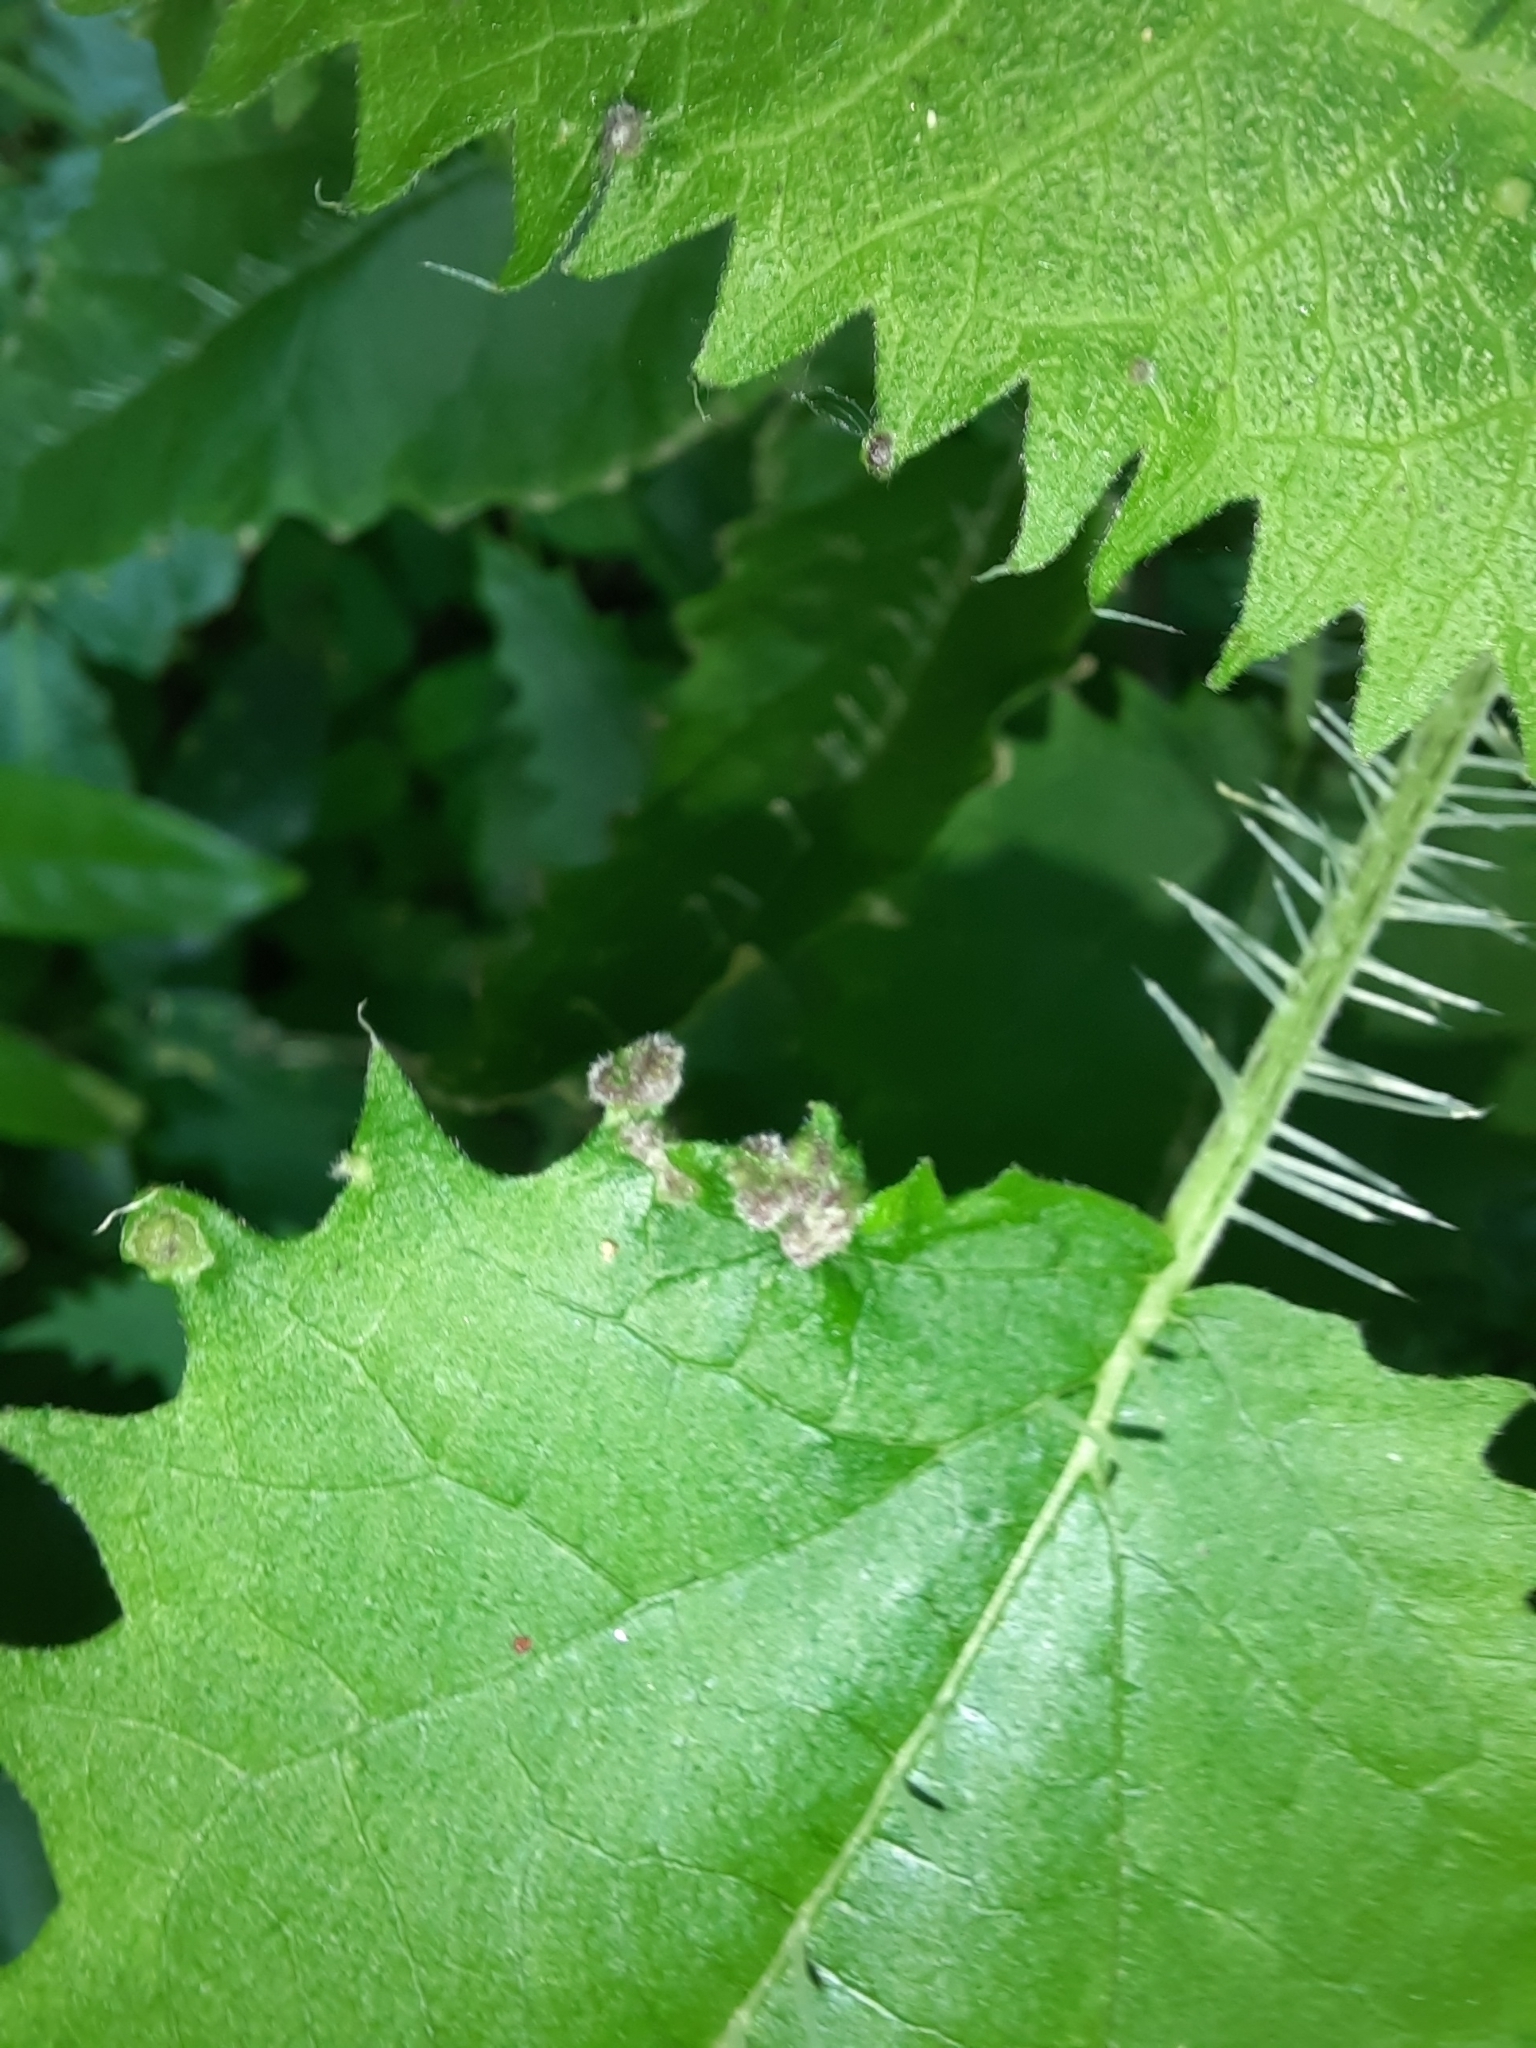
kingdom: Animalia
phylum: Arthropoda
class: Arachnida
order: Trombidiformes
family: Eriophyidae
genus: Vittacus
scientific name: Vittacus
